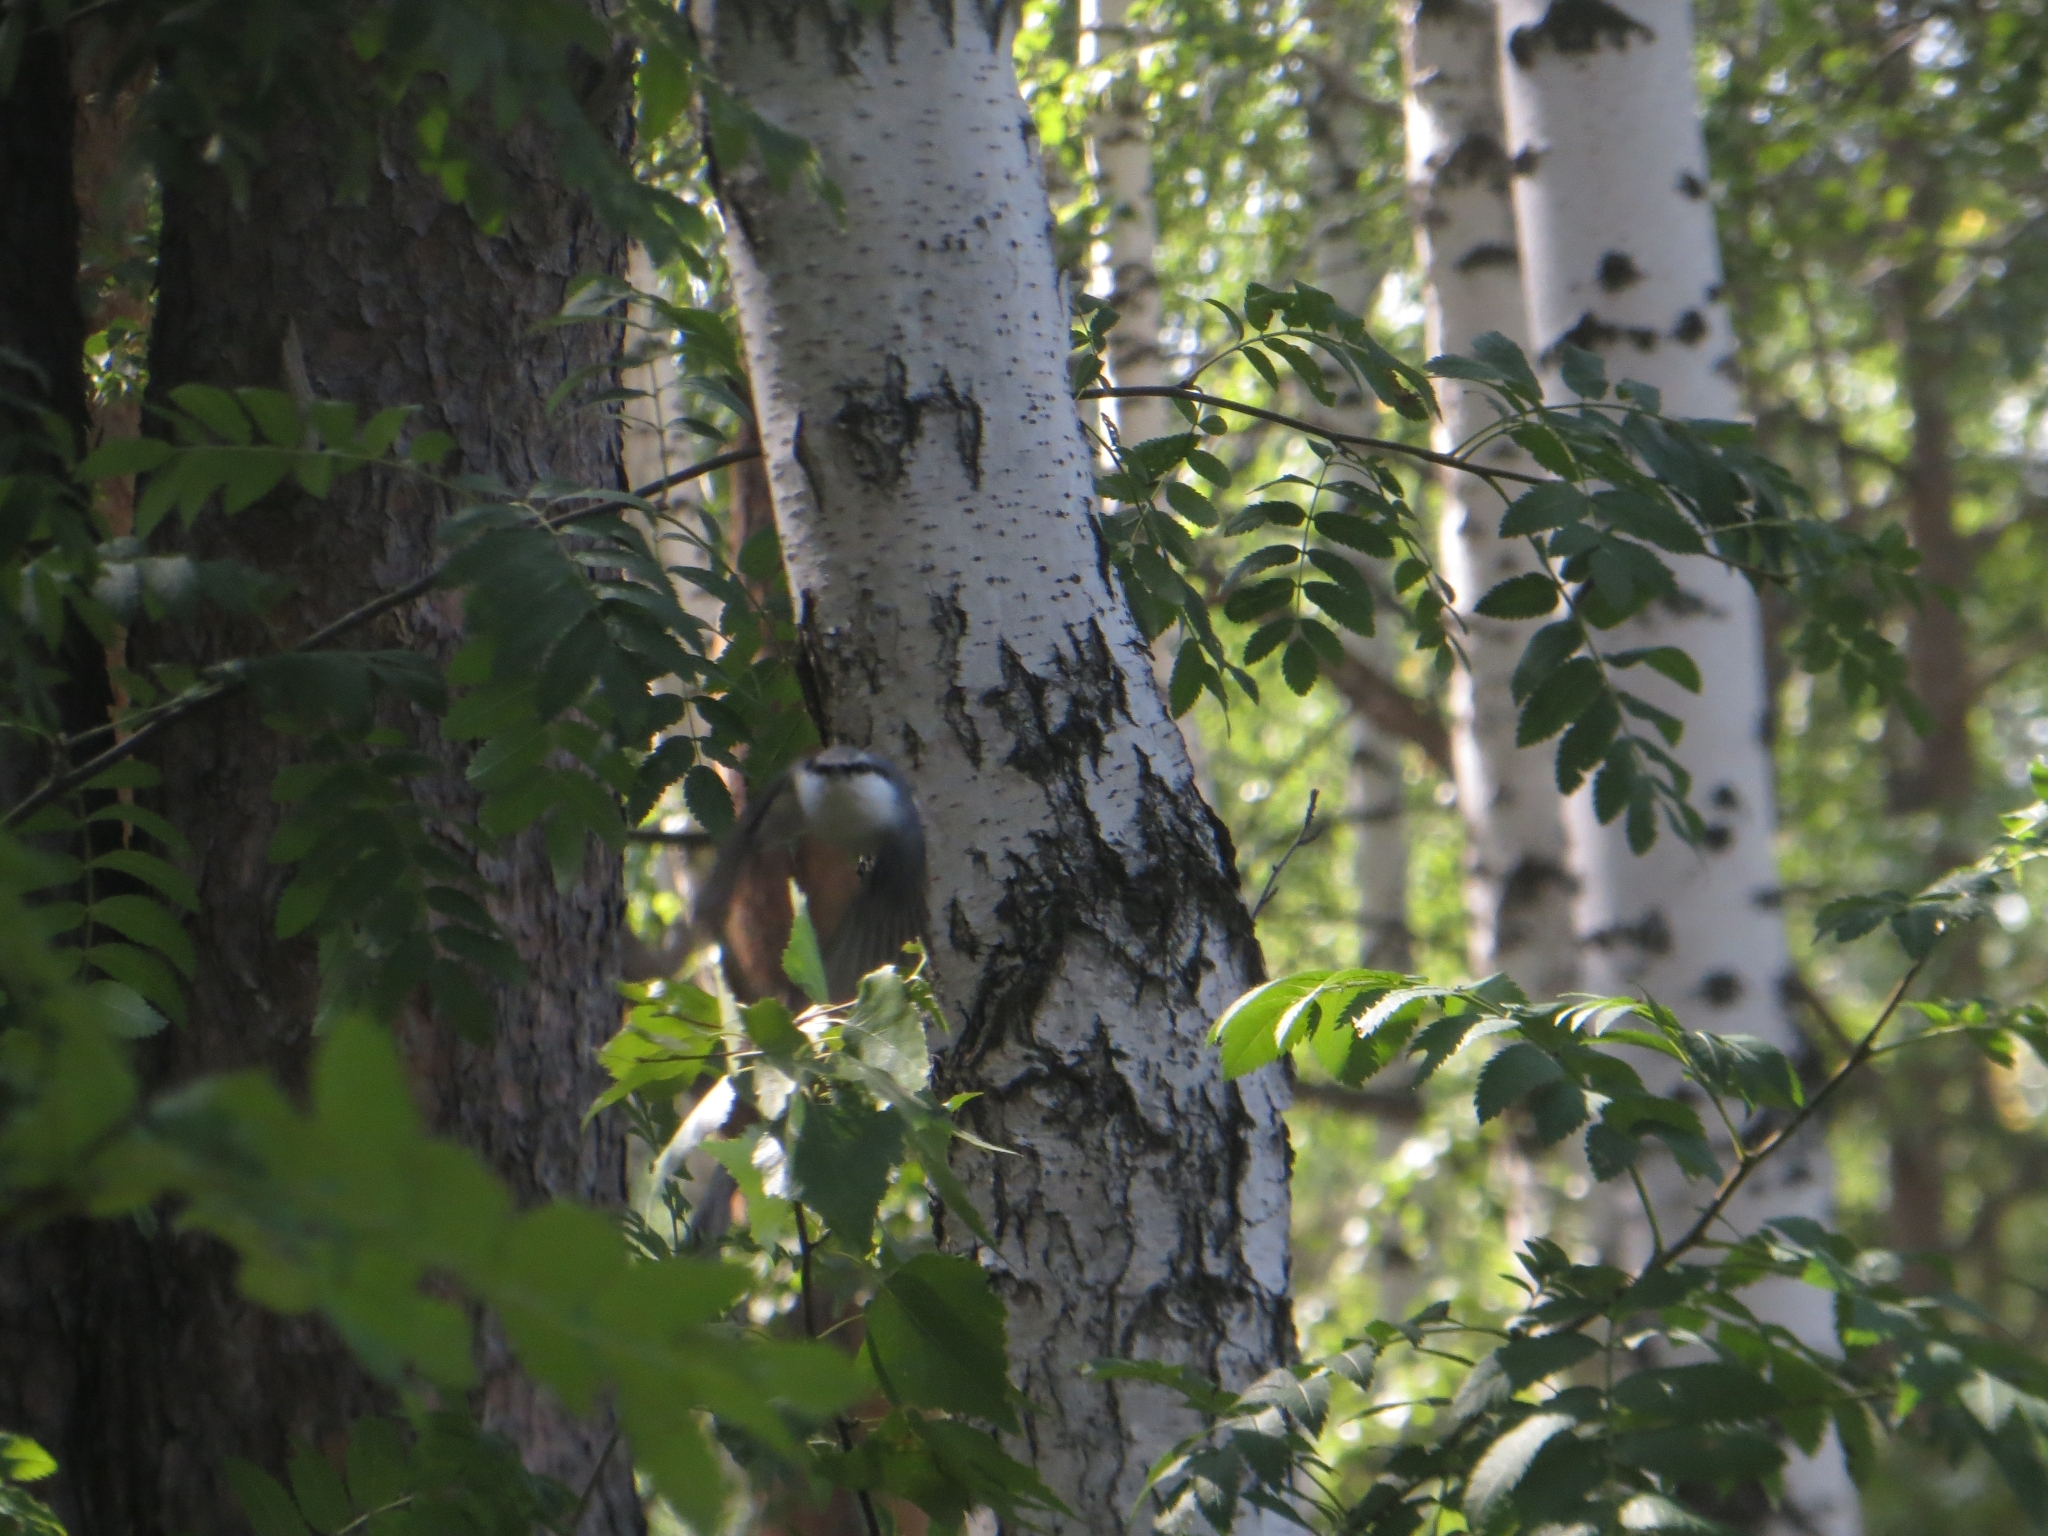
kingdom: Animalia
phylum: Chordata
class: Aves
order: Passeriformes
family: Sittidae
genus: Sitta
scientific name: Sitta europaea
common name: Eurasian nuthatch
